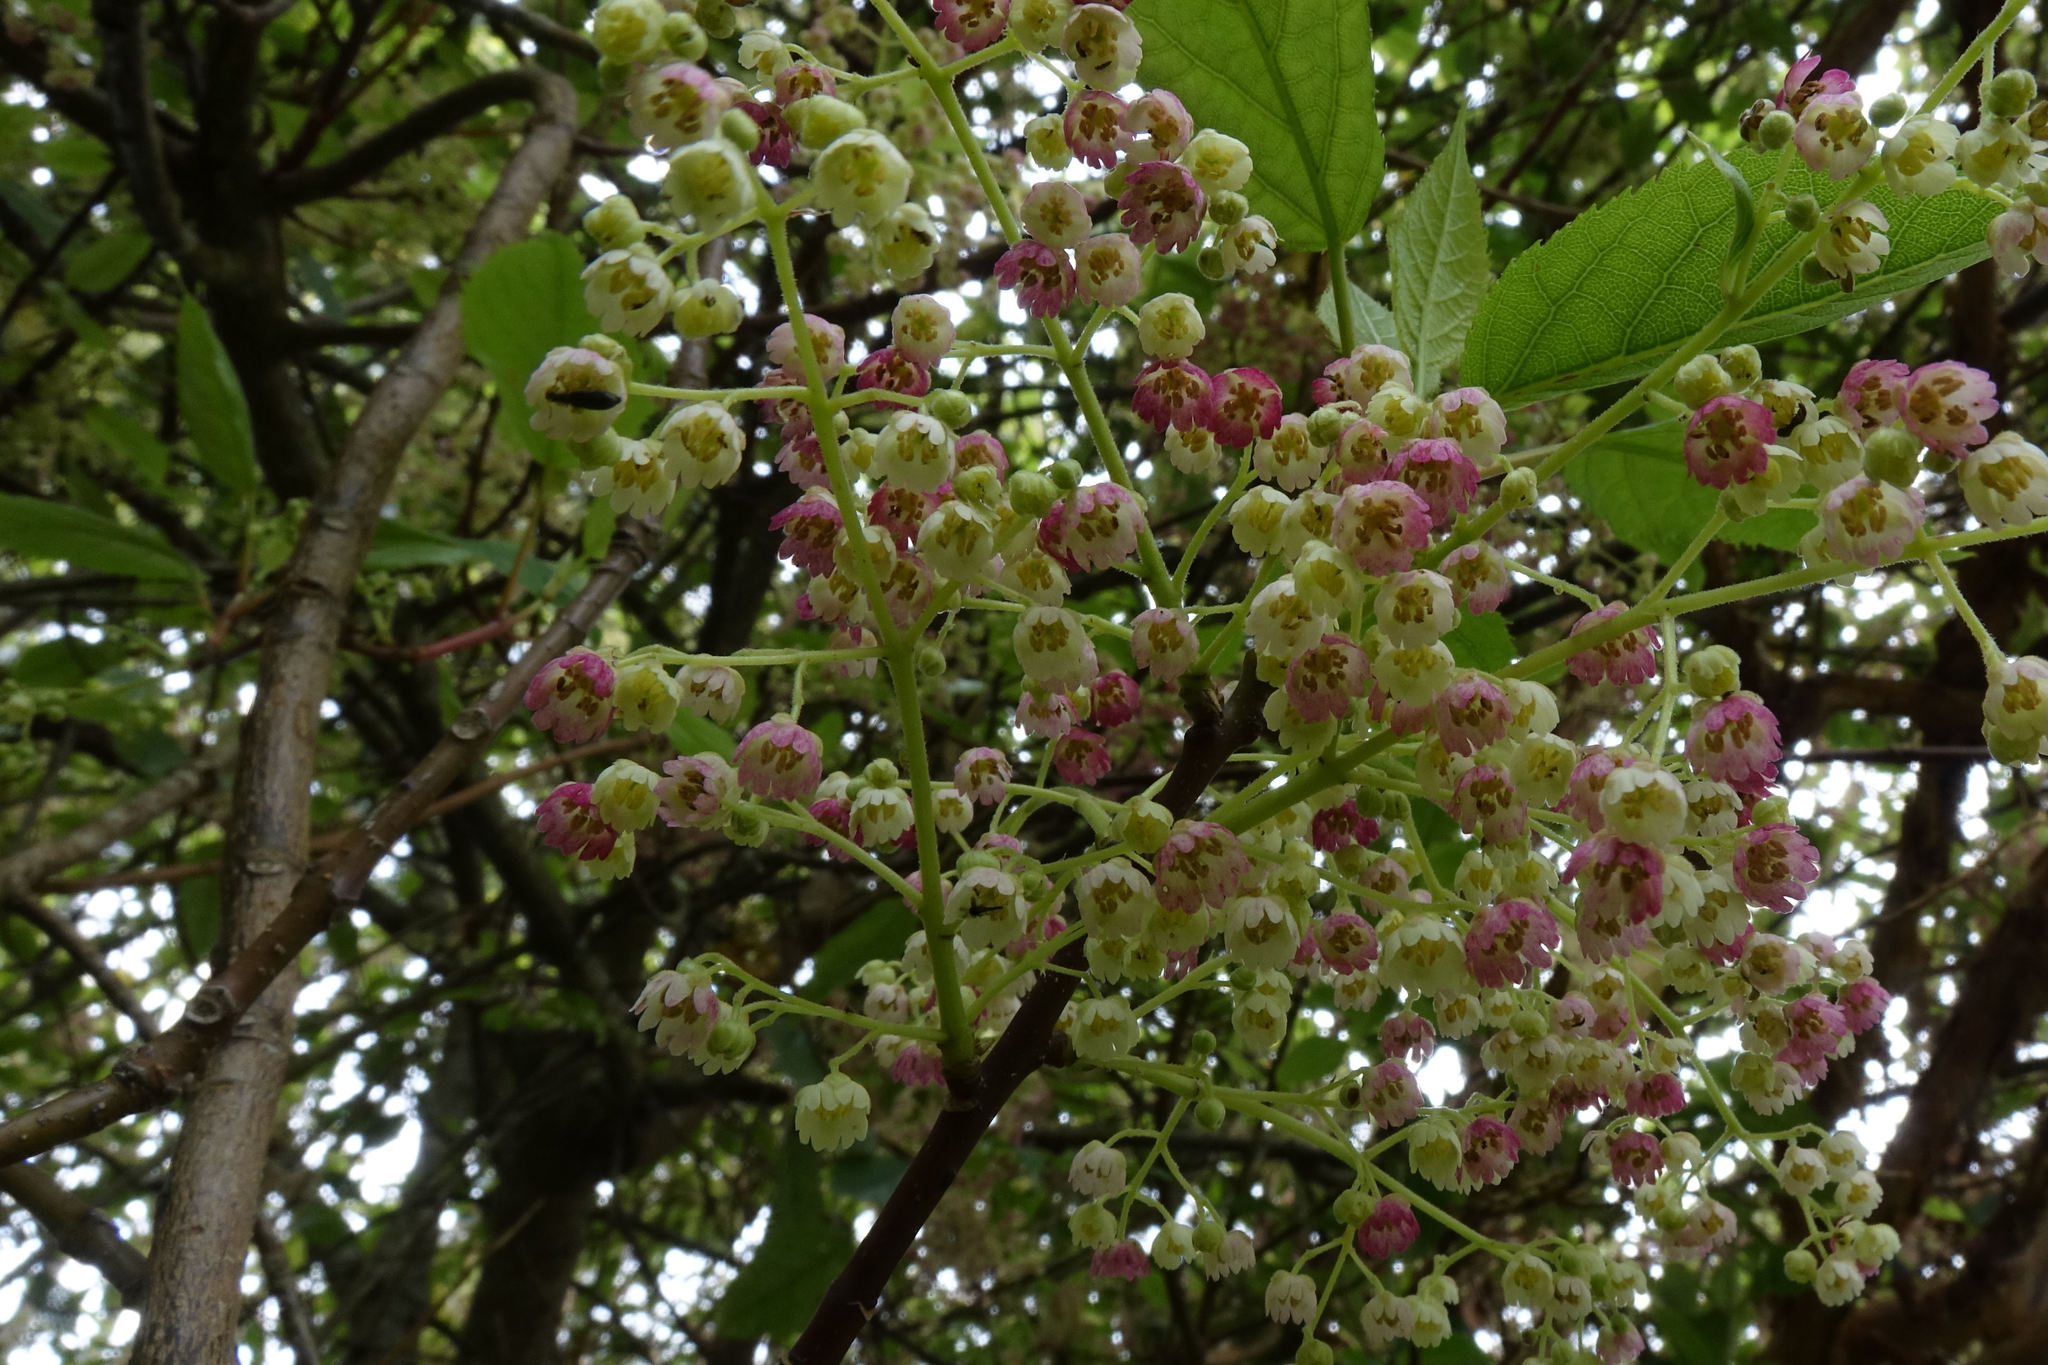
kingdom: Plantae
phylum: Tracheophyta
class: Magnoliopsida
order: Oxalidales
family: Elaeocarpaceae
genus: Aristotelia
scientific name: Aristotelia serrata
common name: New zealand wineberry
